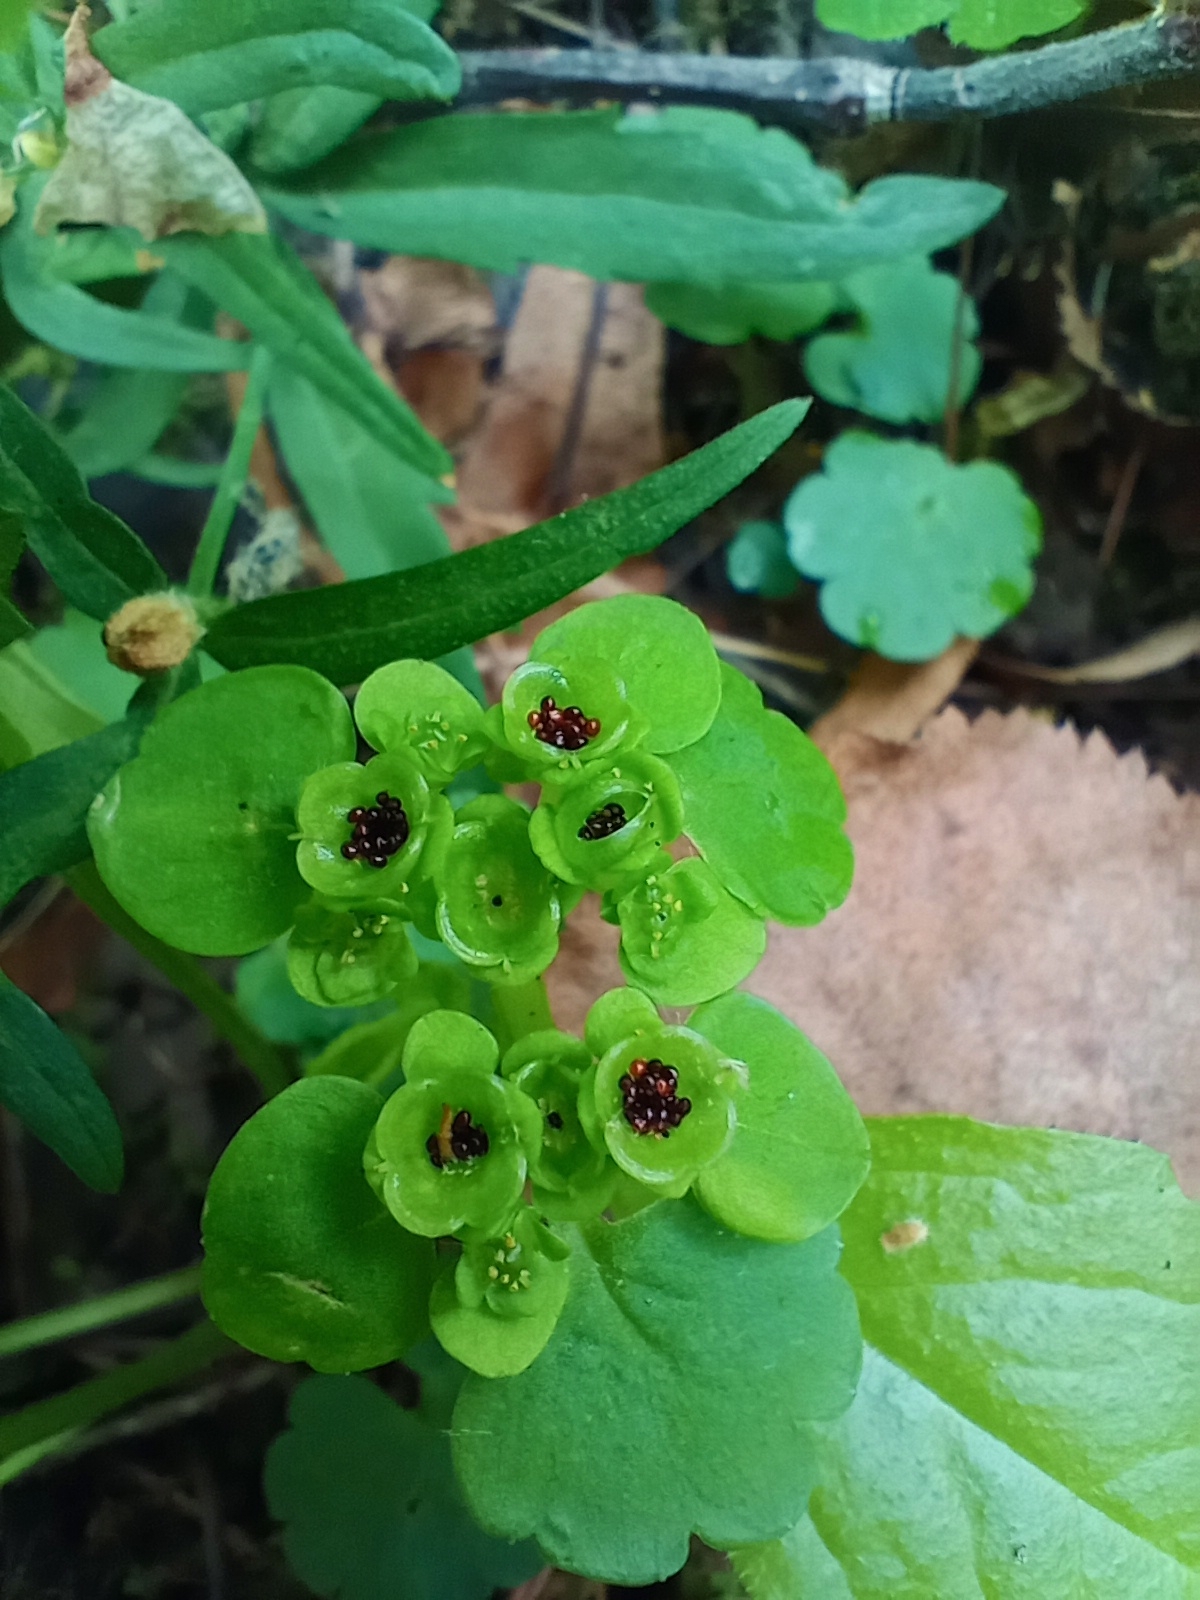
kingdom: Plantae
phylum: Tracheophyta
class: Magnoliopsida
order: Saxifragales
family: Saxifragaceae
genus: Chrysosplenium
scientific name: Chrysosplenium alternifolium
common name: Alternate-leaved golden-saxifrage
